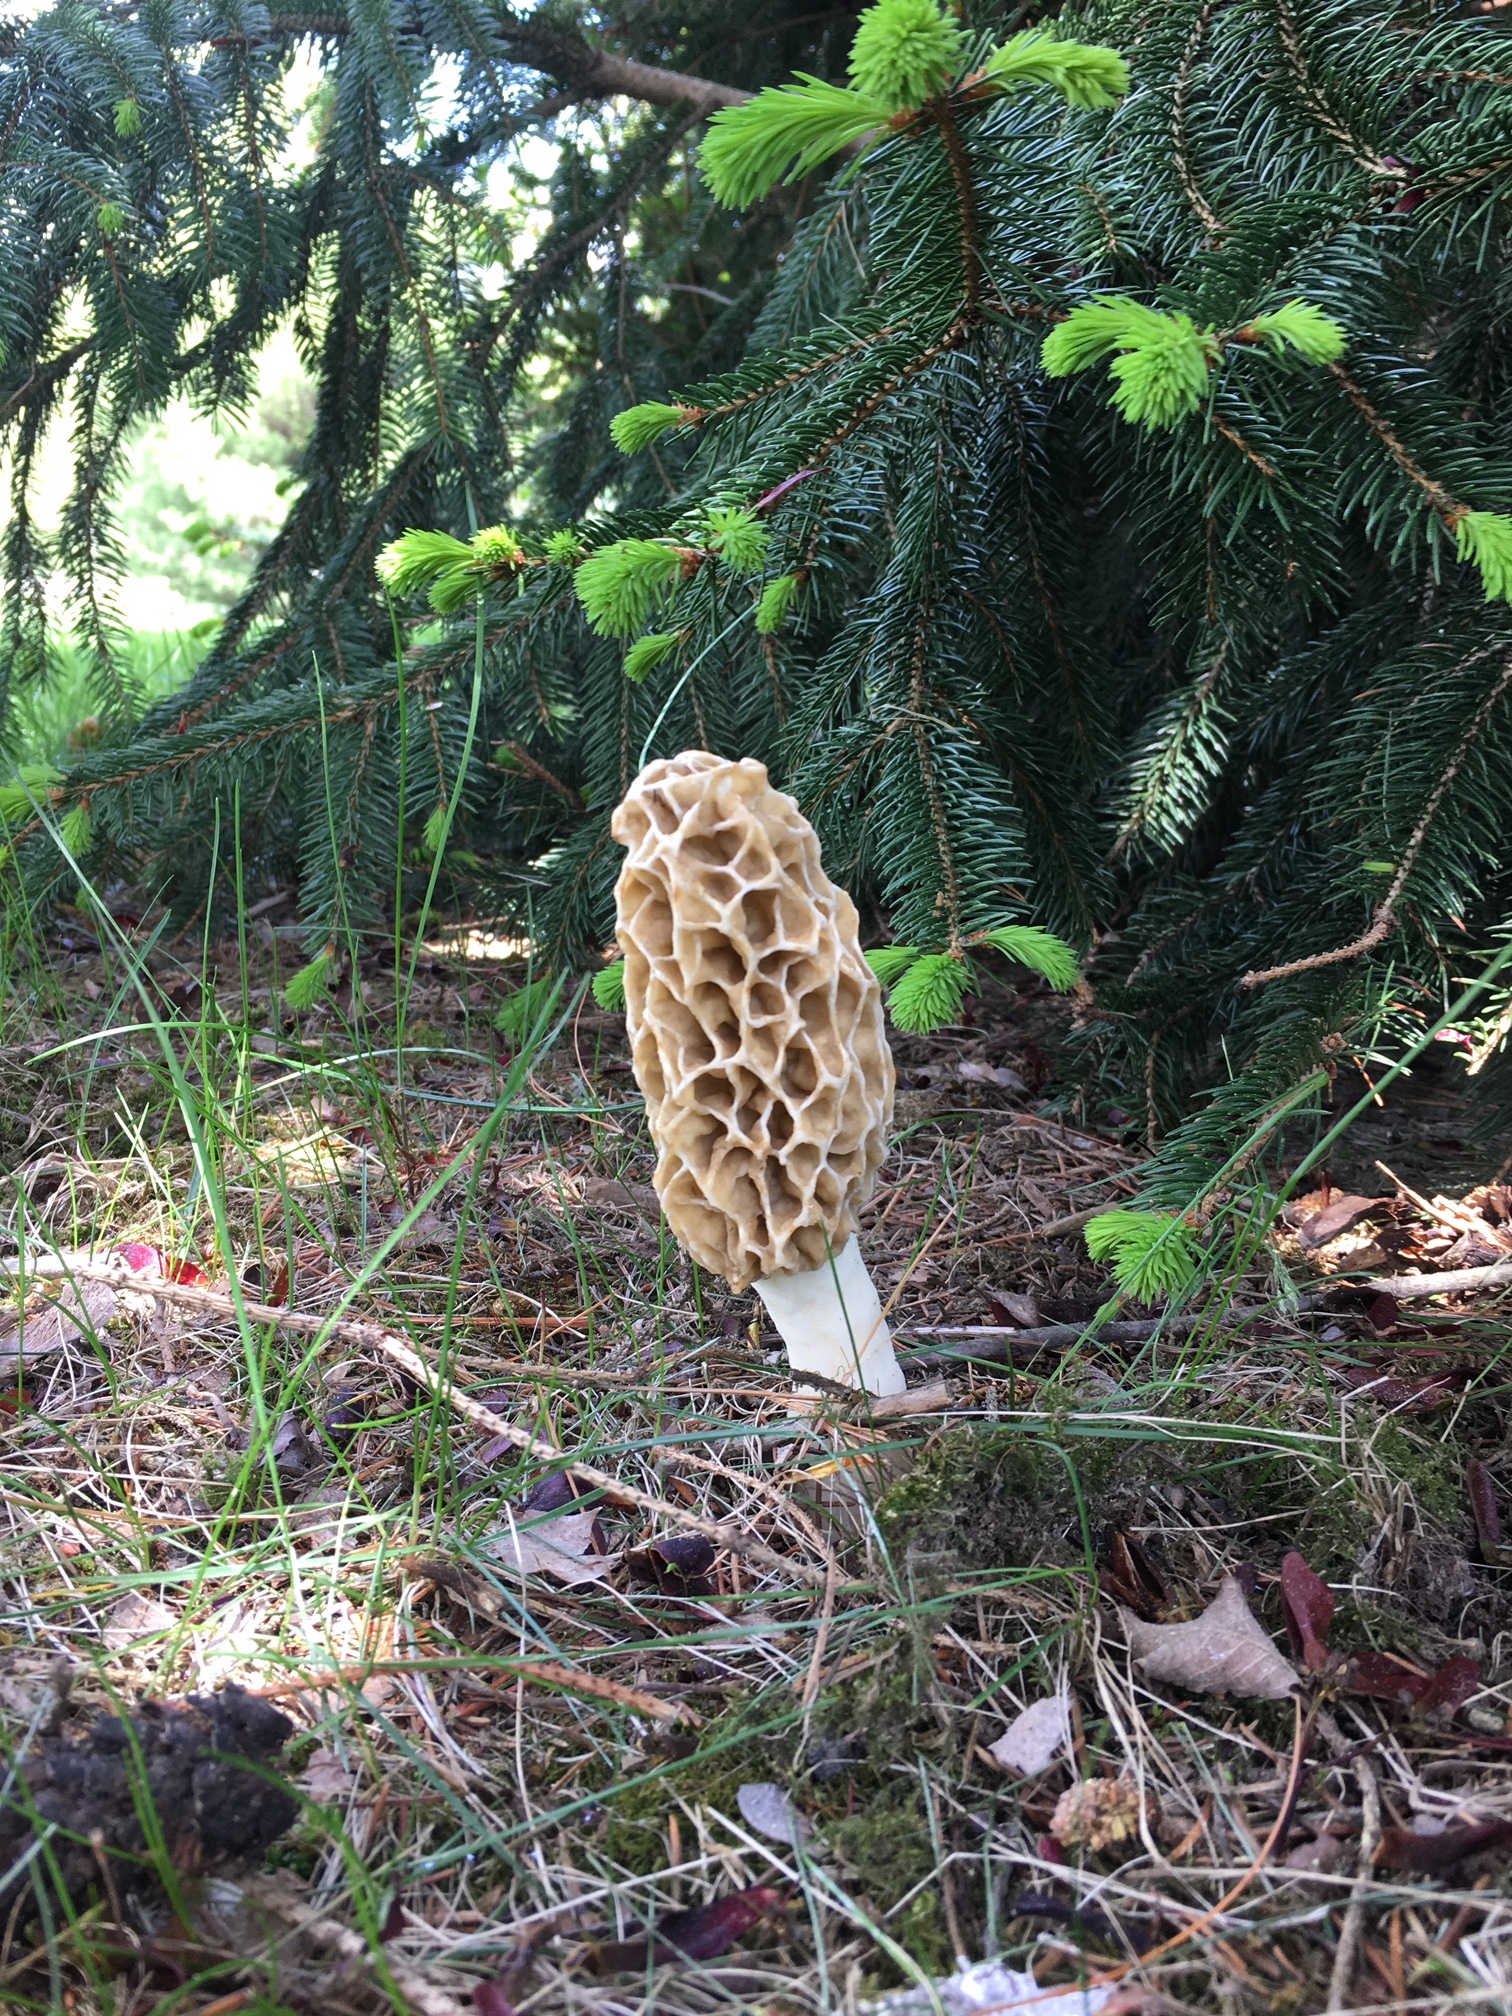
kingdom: Fungi
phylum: Ascomycota
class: Pezizomycetes
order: Pezizales
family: Morchellaceae
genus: Morchella
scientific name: Morchella americana
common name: White morel
